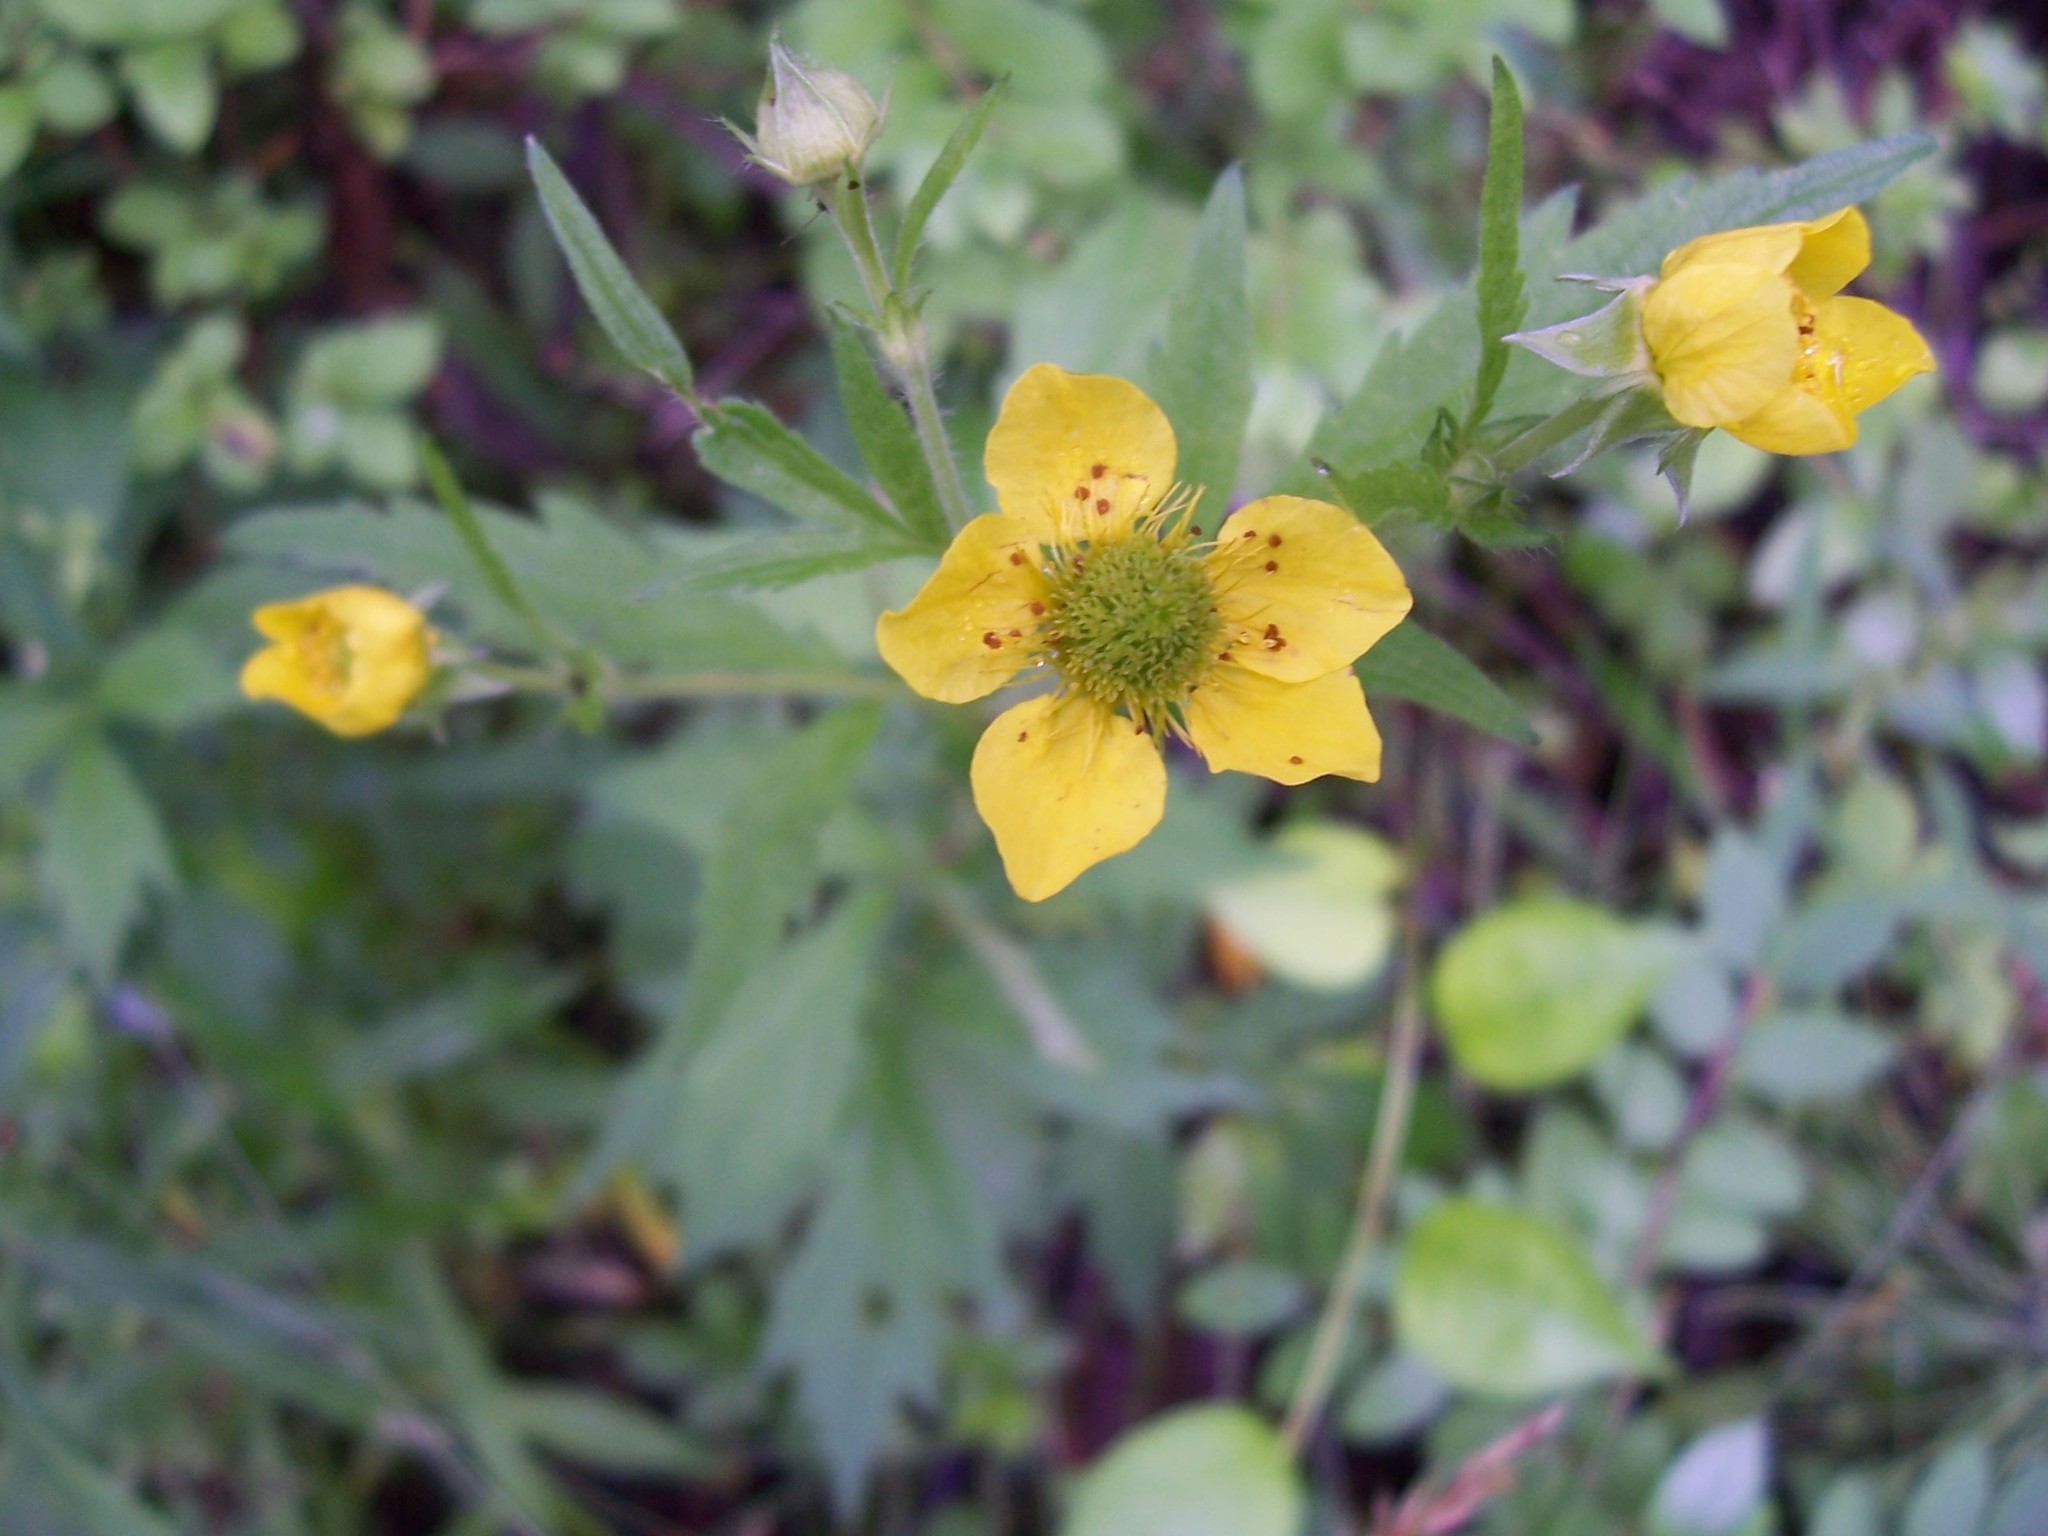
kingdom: Plantae
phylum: Tracheophyta
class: Magnoliopsida
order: Rosales
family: Rosaceae
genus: Geum
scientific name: Geum aleppicum
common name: Yellow avens
